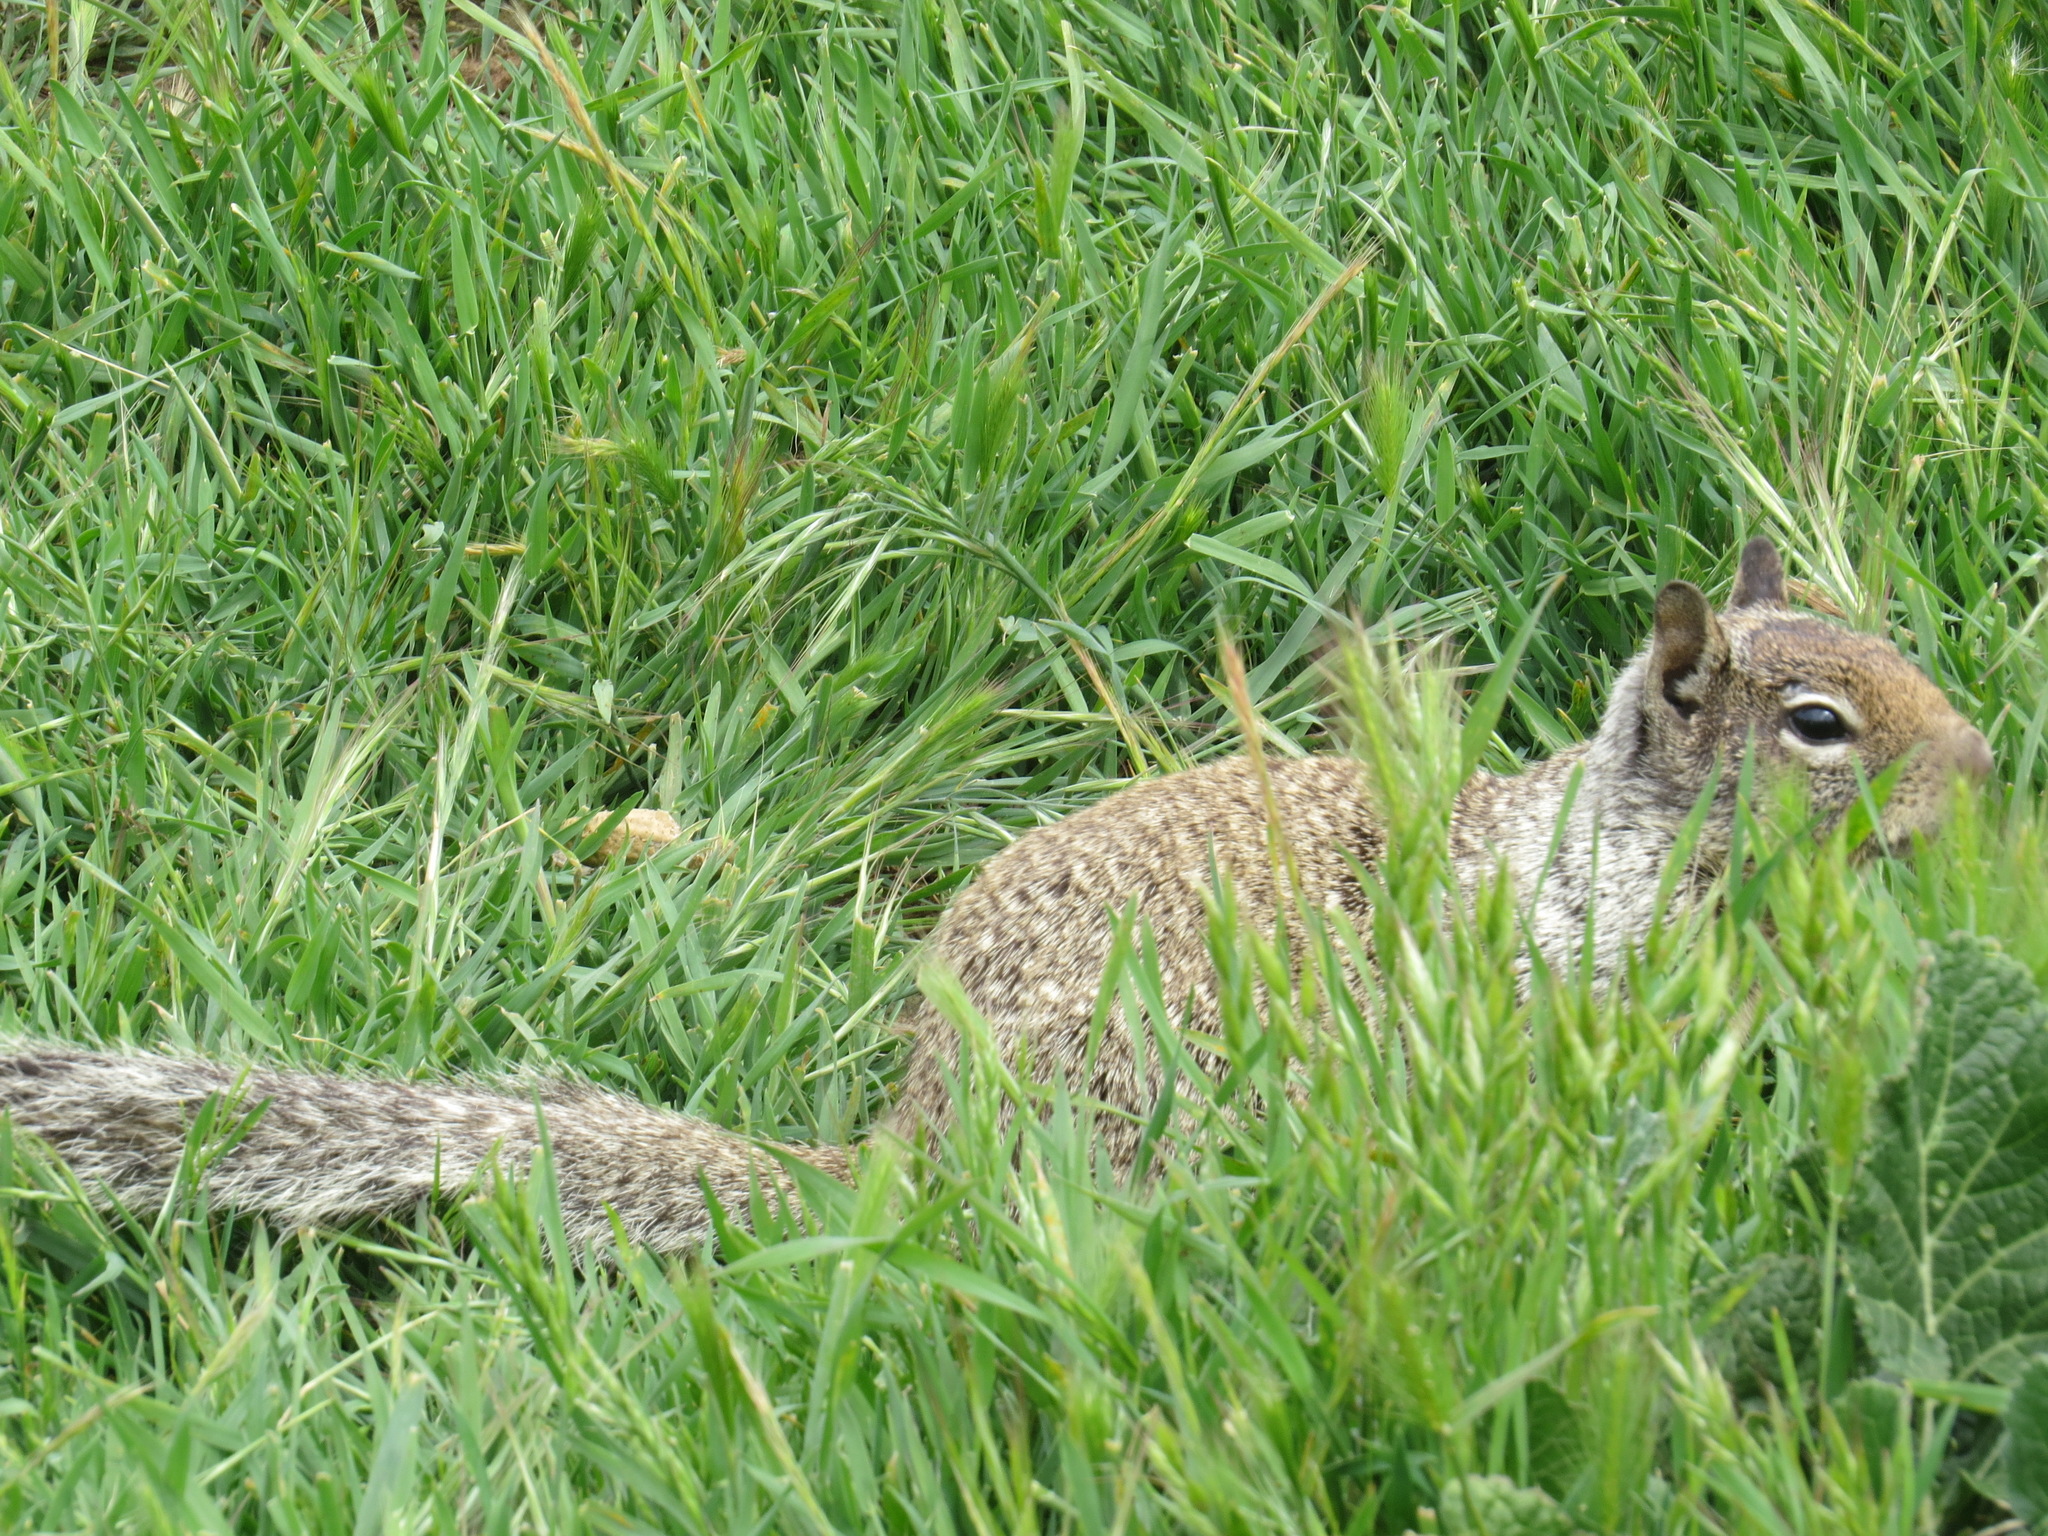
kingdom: Animalia
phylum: Chordata
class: Mammalia
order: Rodentia
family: Sciuridae
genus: Otospermophilus
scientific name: Otospermophilus beecheyi
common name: California ground squirrel
